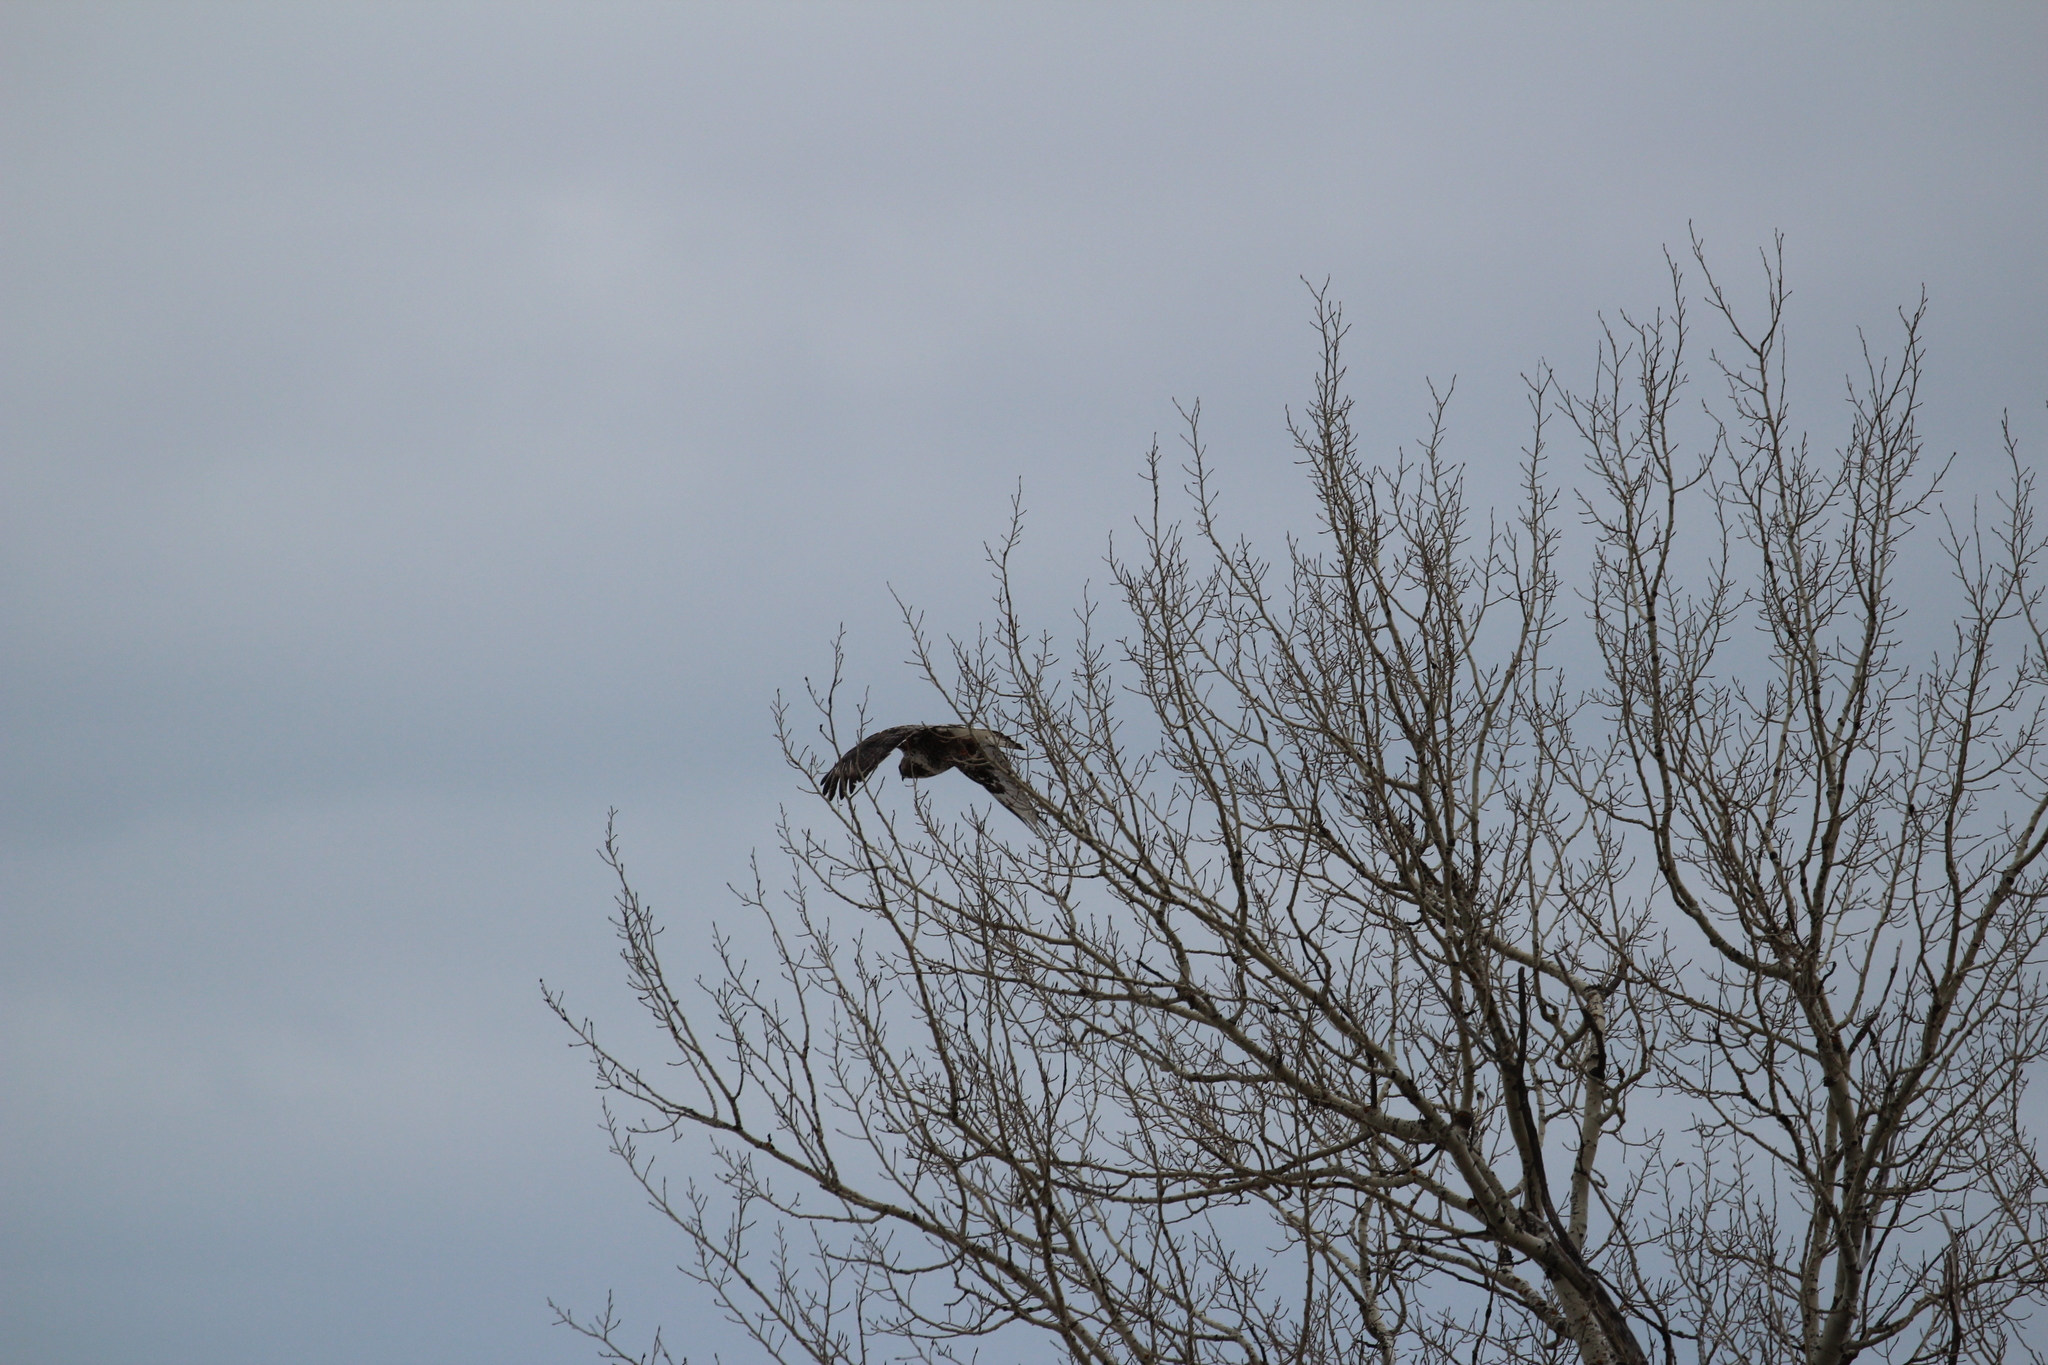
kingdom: Animalia
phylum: Chordata
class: Aves
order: Accipitriformes
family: Accipitridae
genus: Buteo
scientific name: Buteo lagopus
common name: Rough-legged buzzard
